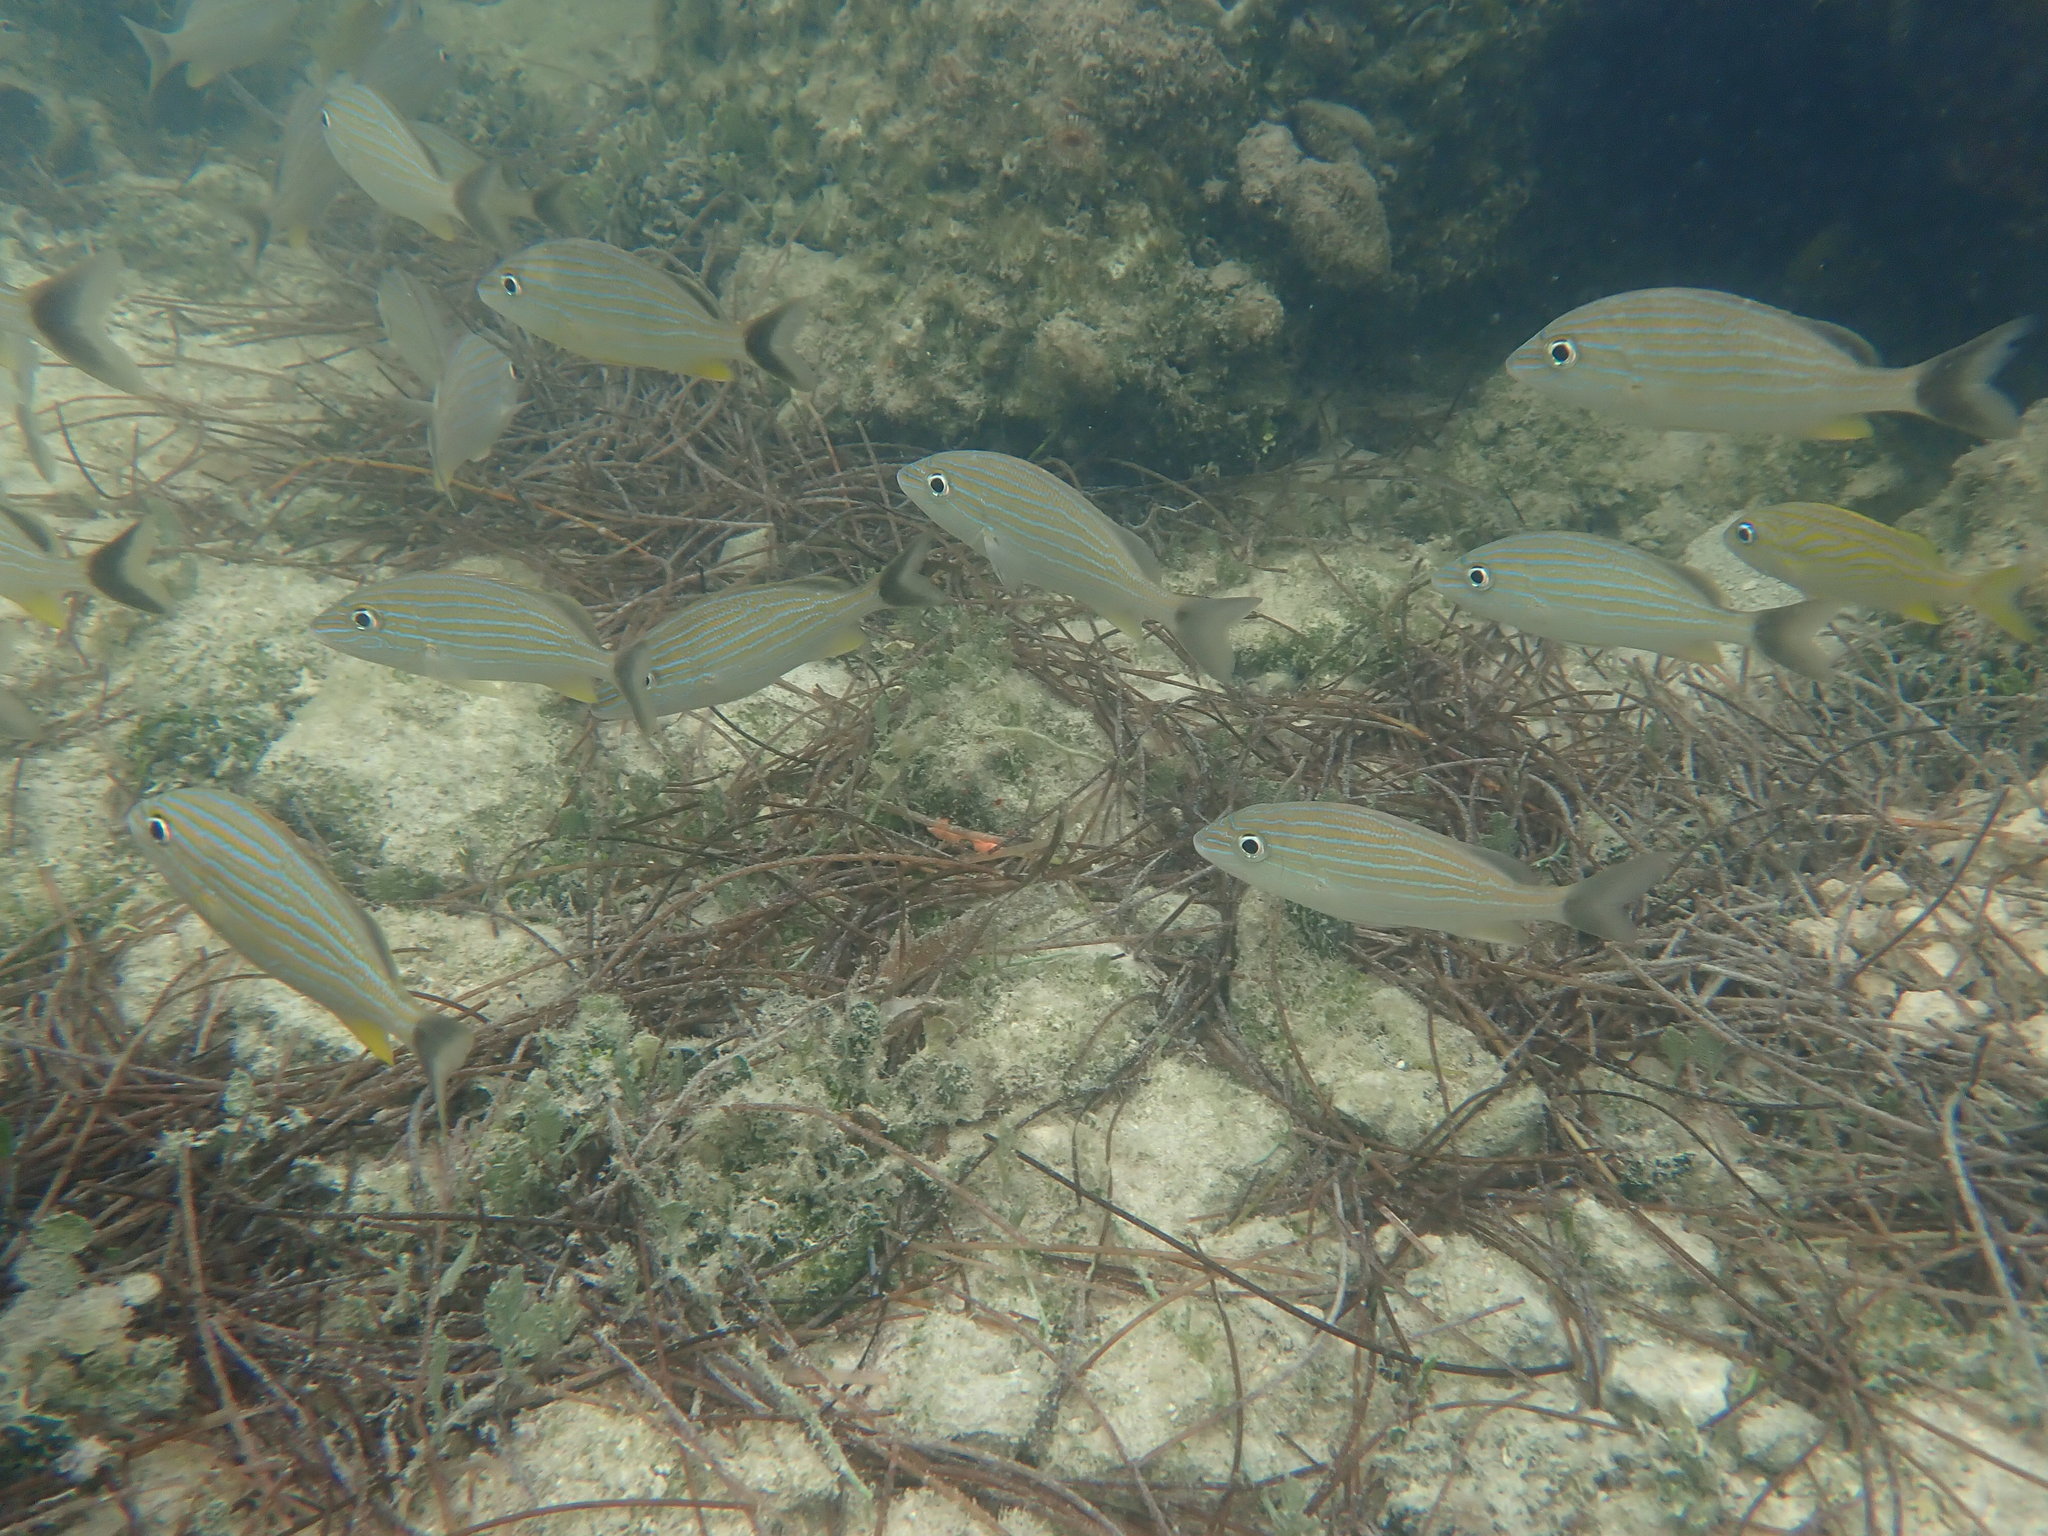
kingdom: Animalia
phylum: Chordata
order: Perciformes
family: Haemulidae
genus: Haemulon
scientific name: Haemulon sciurus
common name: Bluestriped grunt
